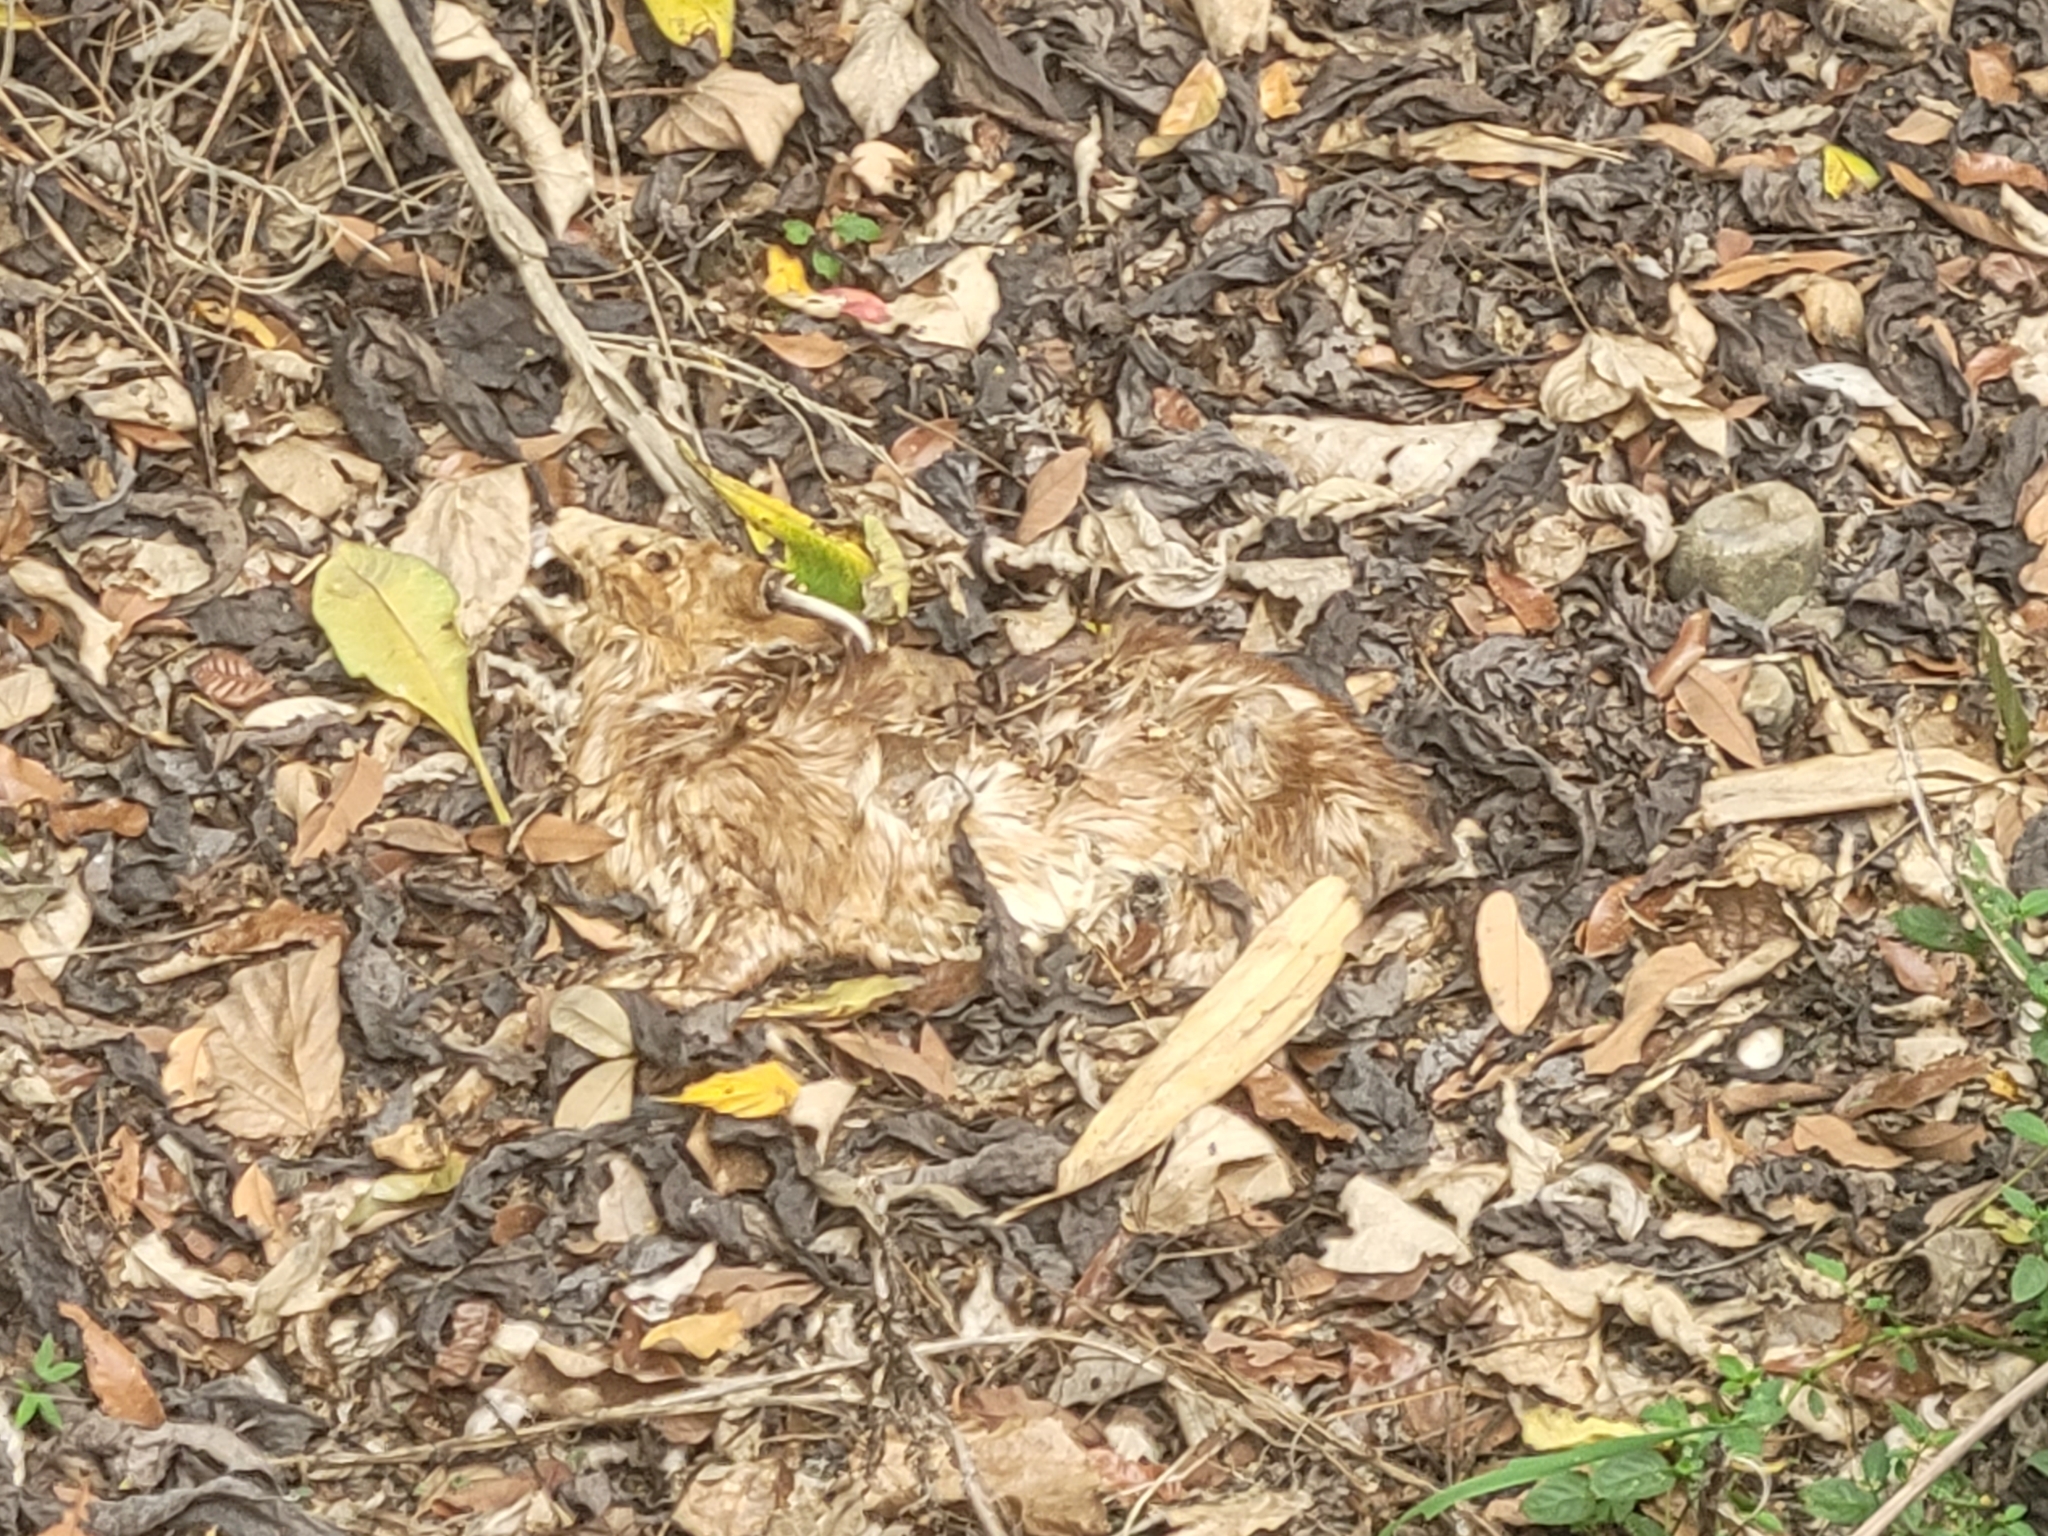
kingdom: Animalia
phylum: Chordata
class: Mammalia
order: Artiodactyla
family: Cervidae
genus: Muntiacus
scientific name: Muntiacus reevesi
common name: Reeves' muntjac
